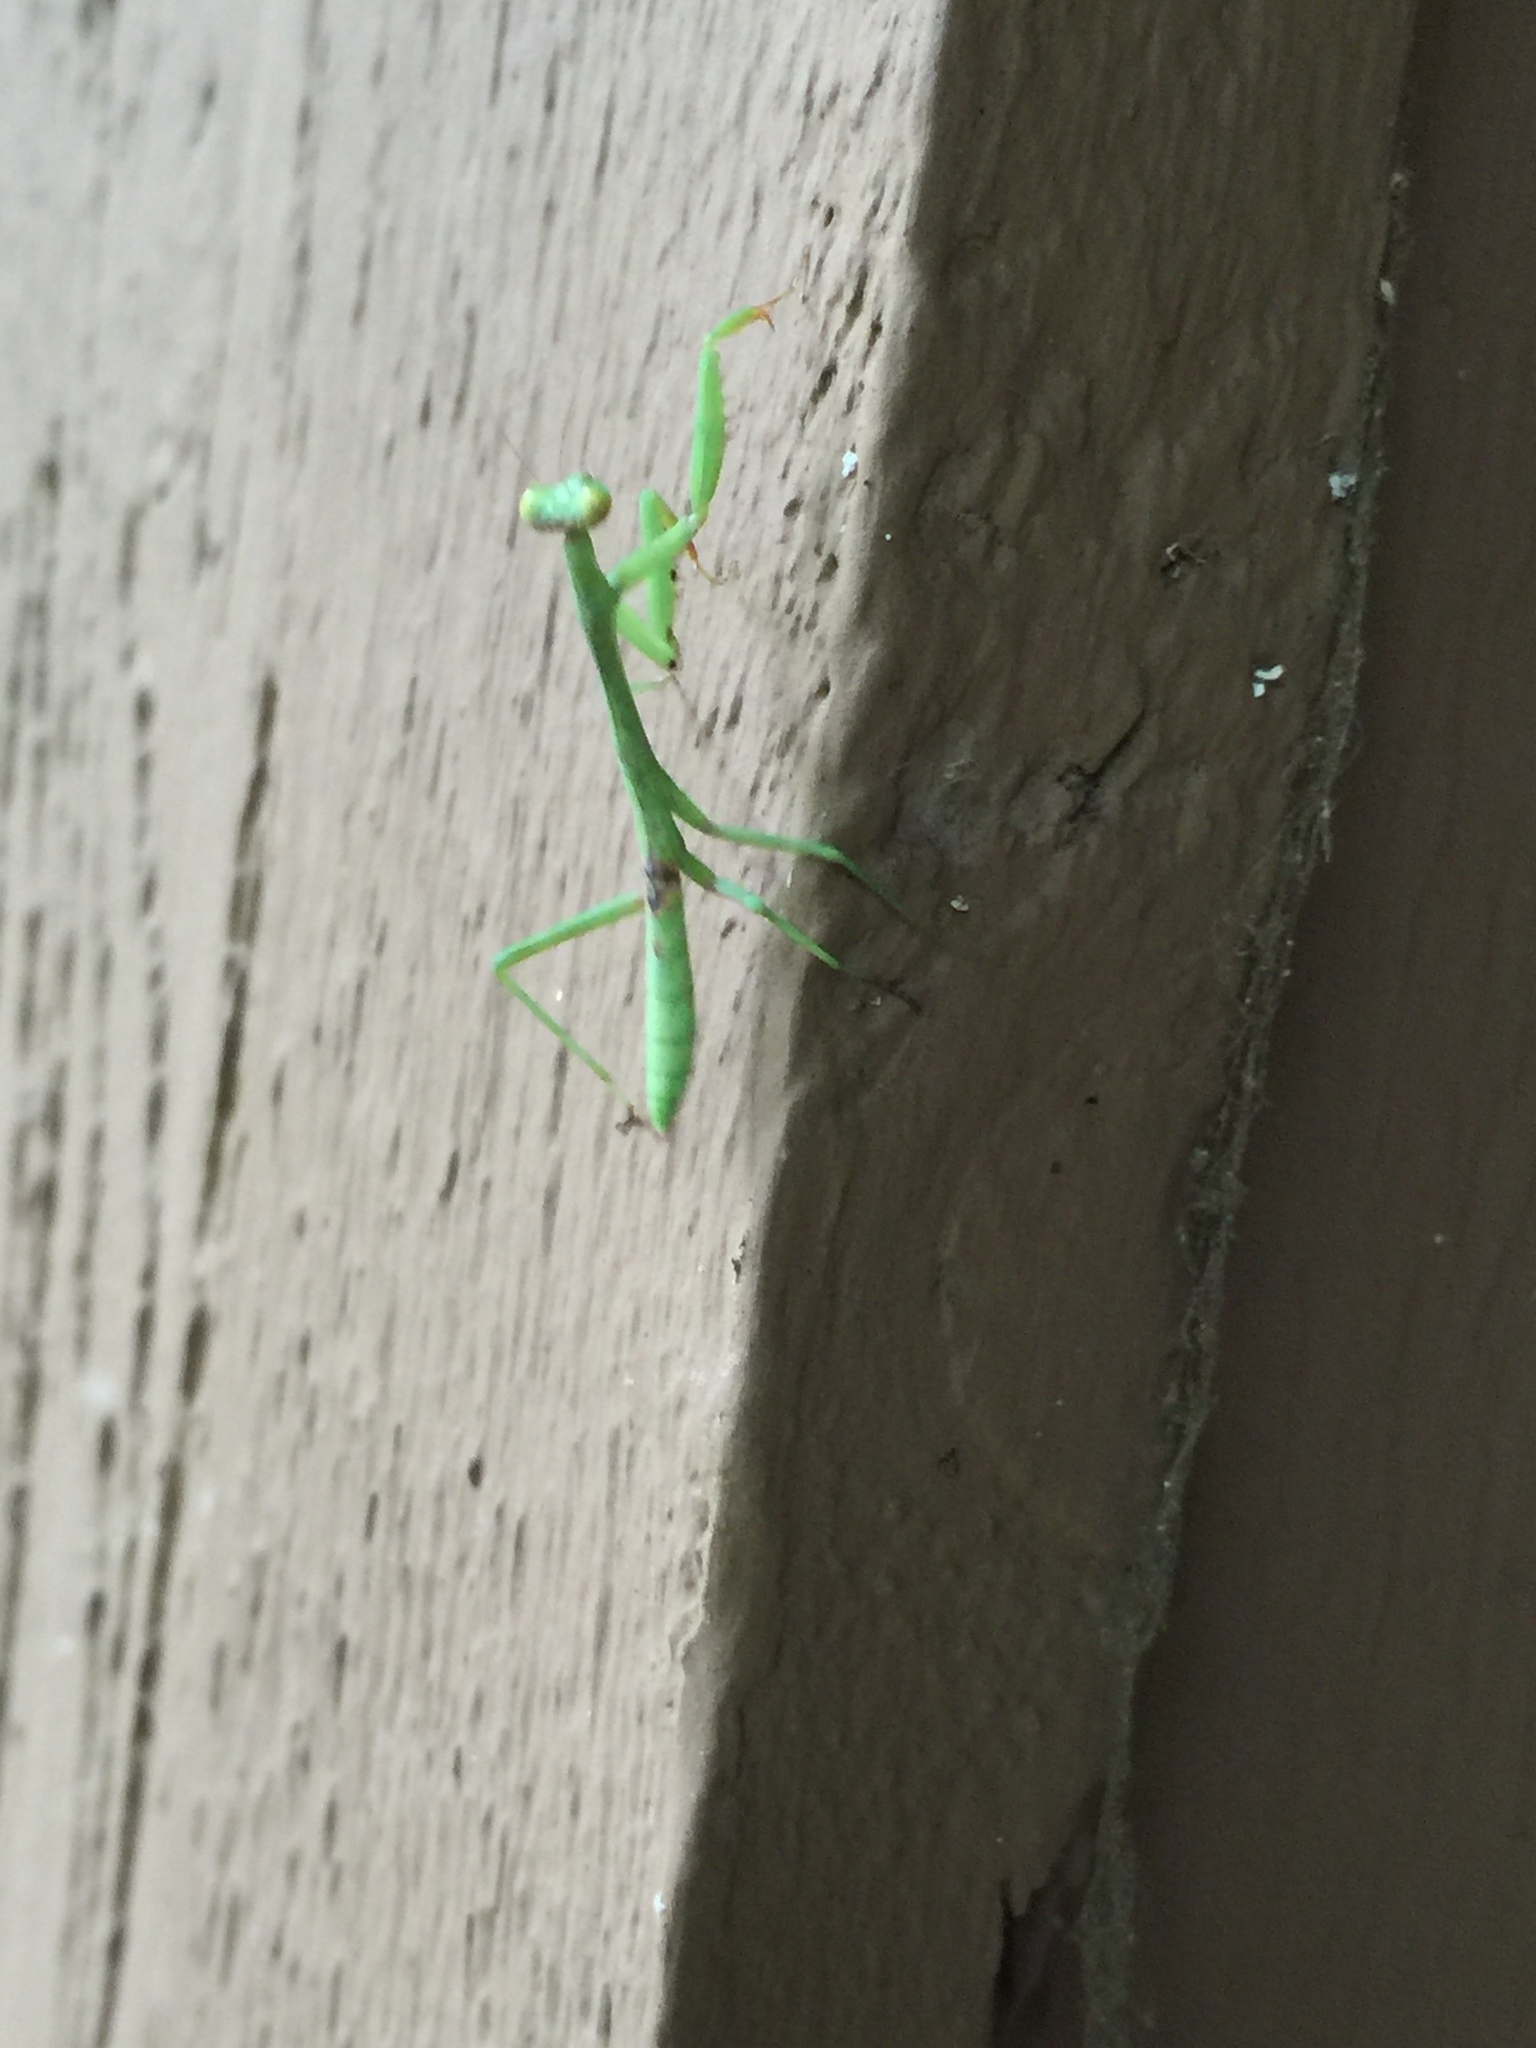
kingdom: Animalia
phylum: Arthropoda
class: Insecta
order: Mantodea
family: Mantidae
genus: Stagmomantis
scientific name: Stagmomantis carolina
